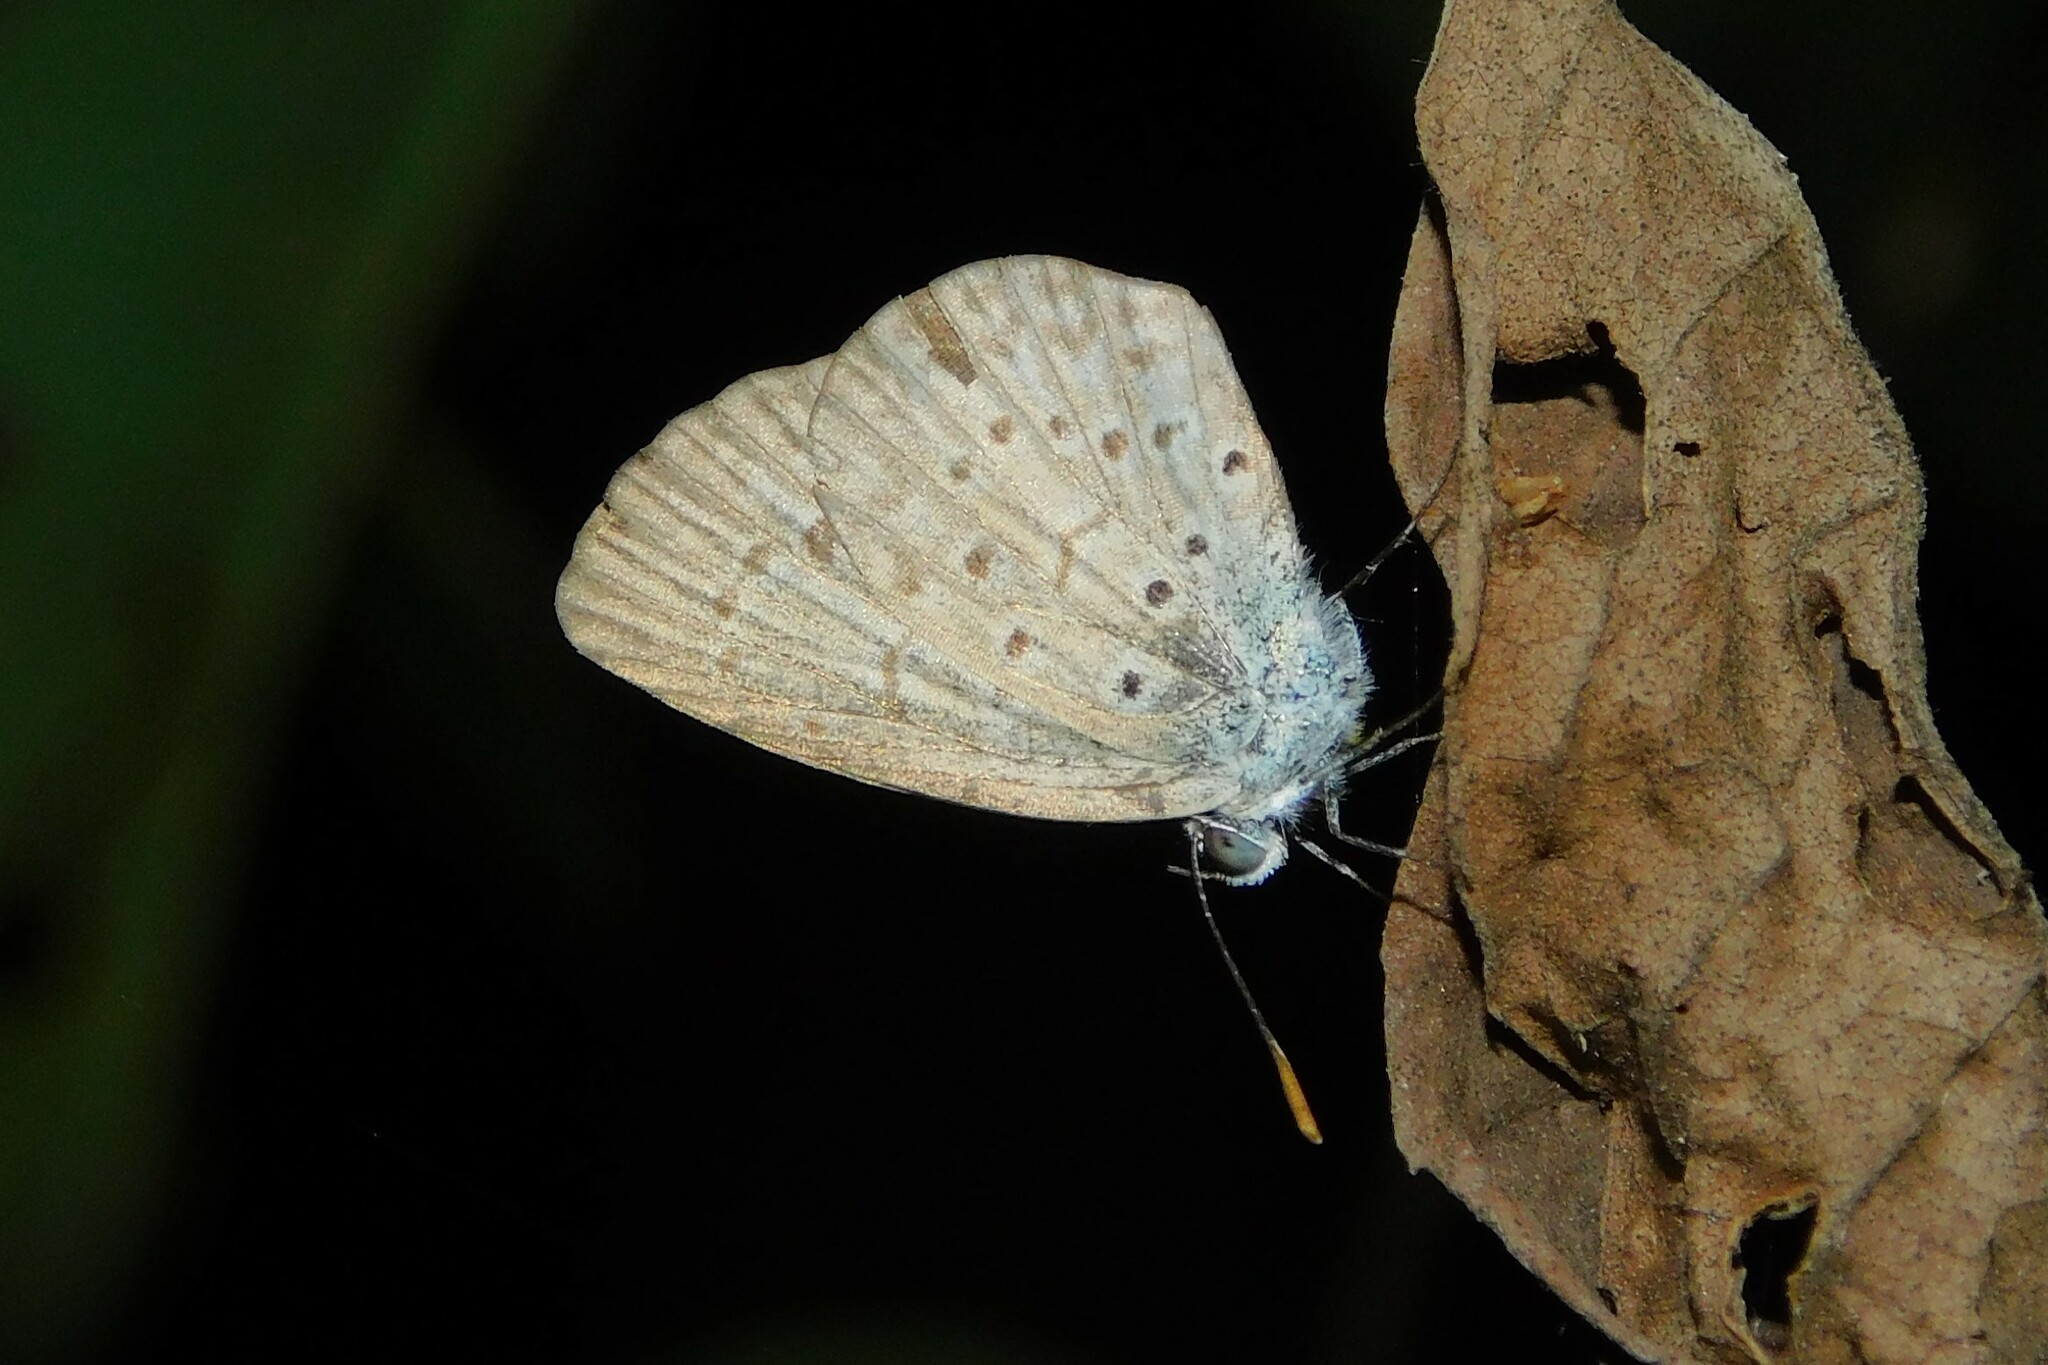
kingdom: Animalia
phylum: Arthropoda
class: Insecta
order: Lepidoptera
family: Lycaenidae
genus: Zizeeria
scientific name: Zizeeria knysna
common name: African grass blue
